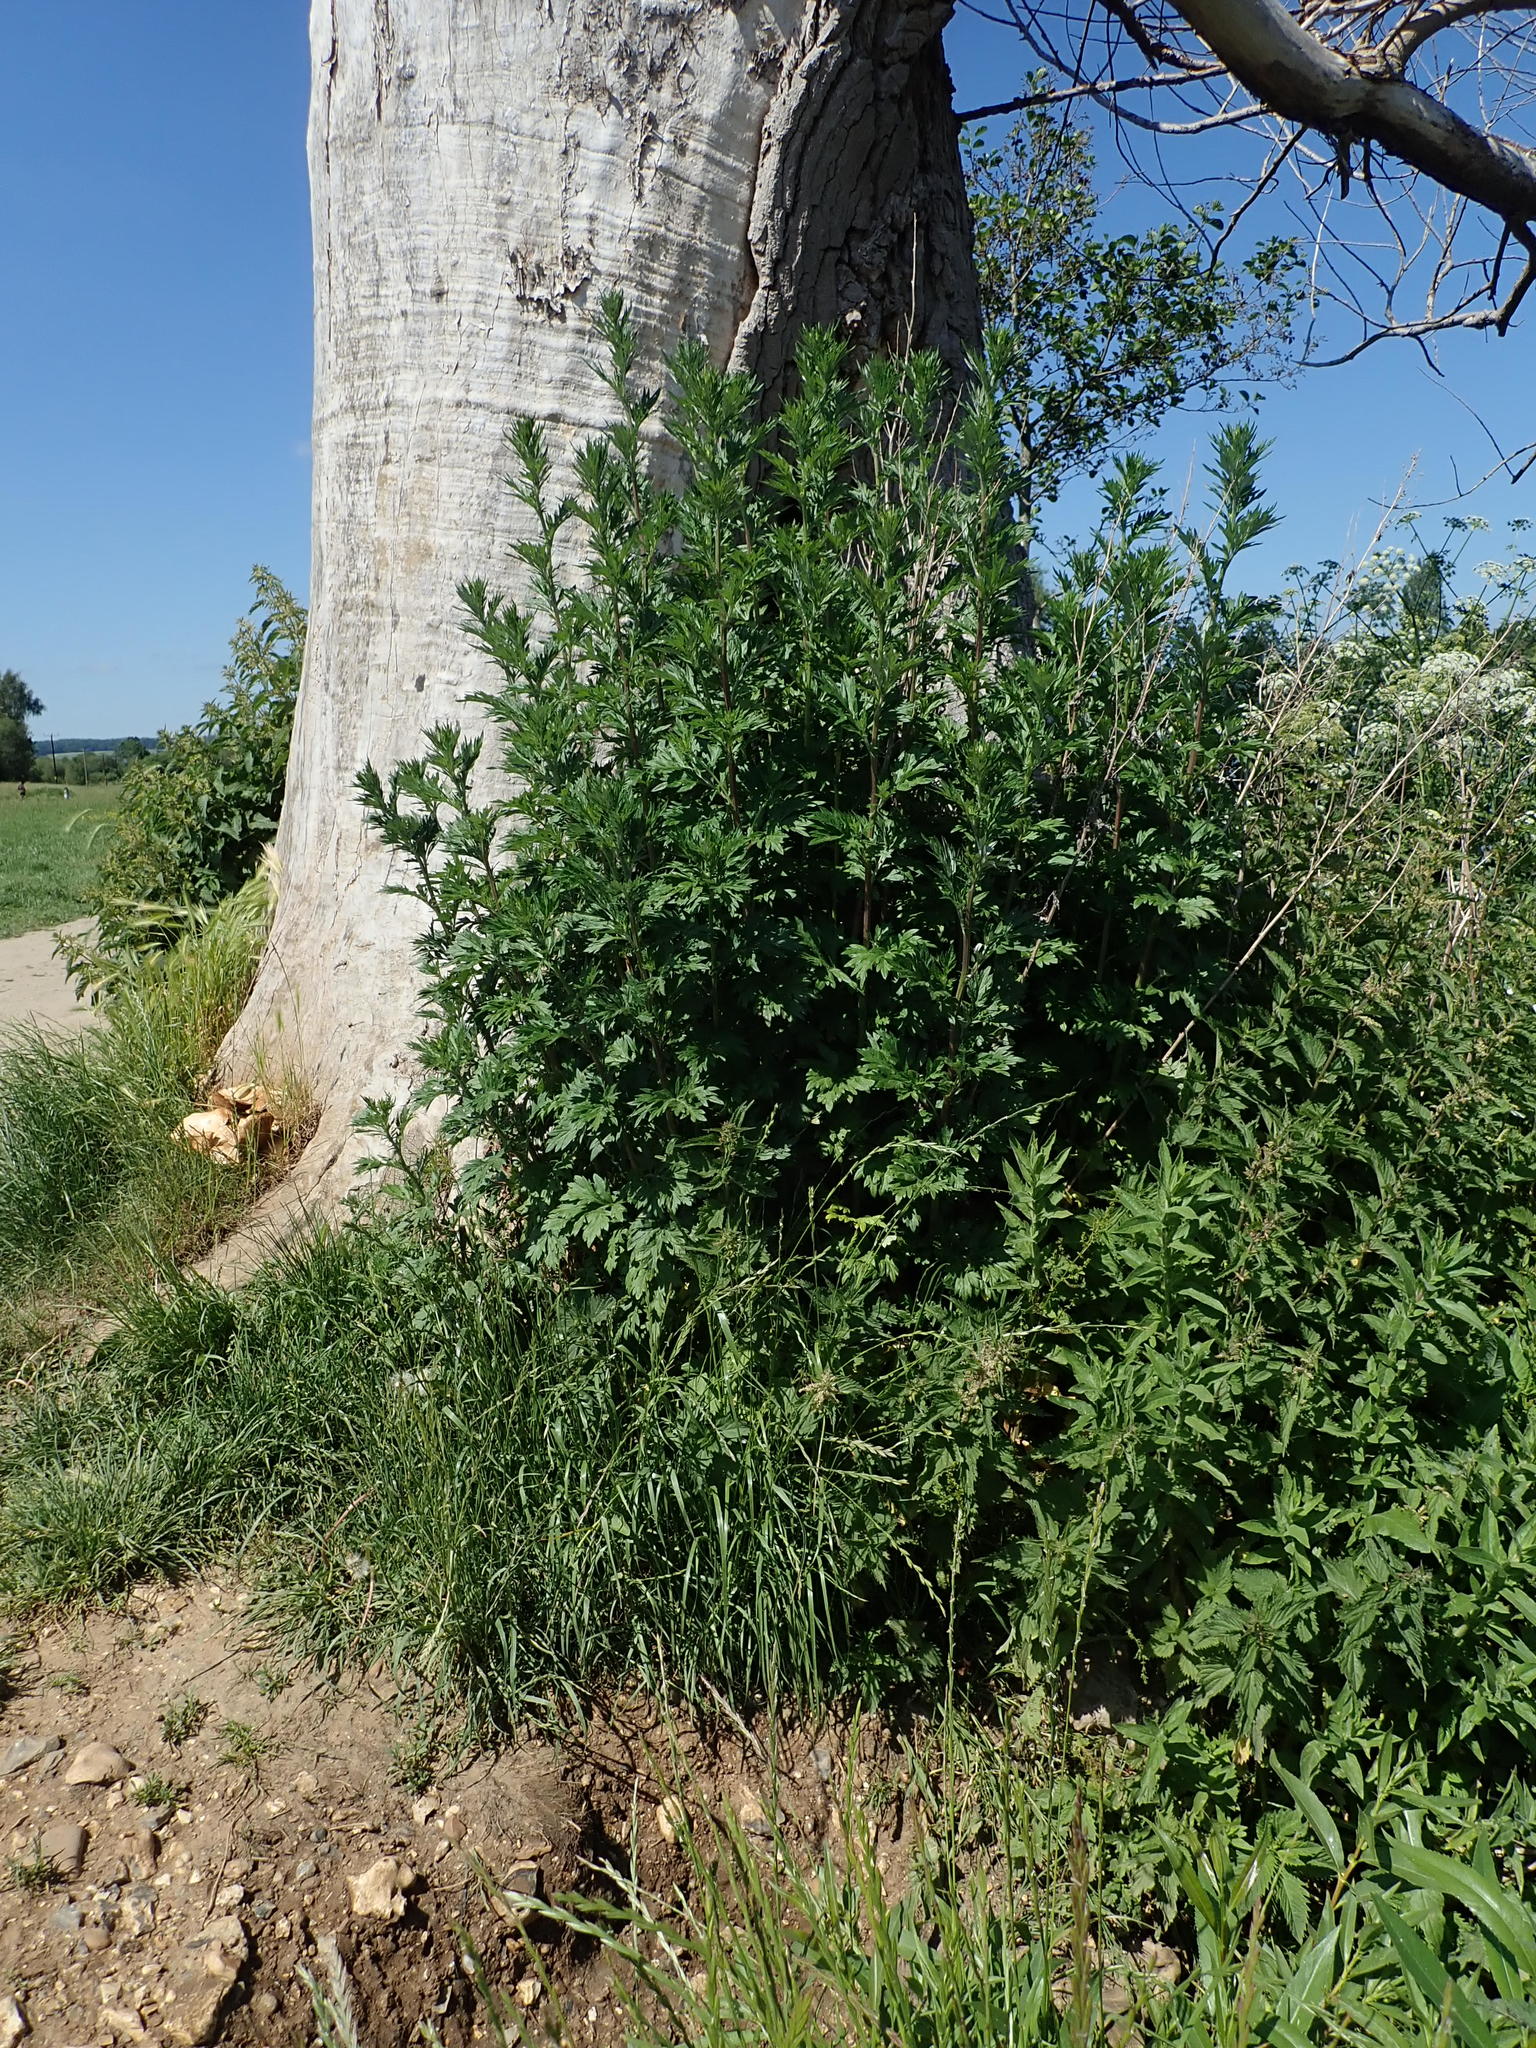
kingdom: Plantae
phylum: Tracheophyta
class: Magnoliopsida
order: Asterales
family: Asteraceae
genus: Artemisia
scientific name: Artemisia vulgaris
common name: Mugwort
